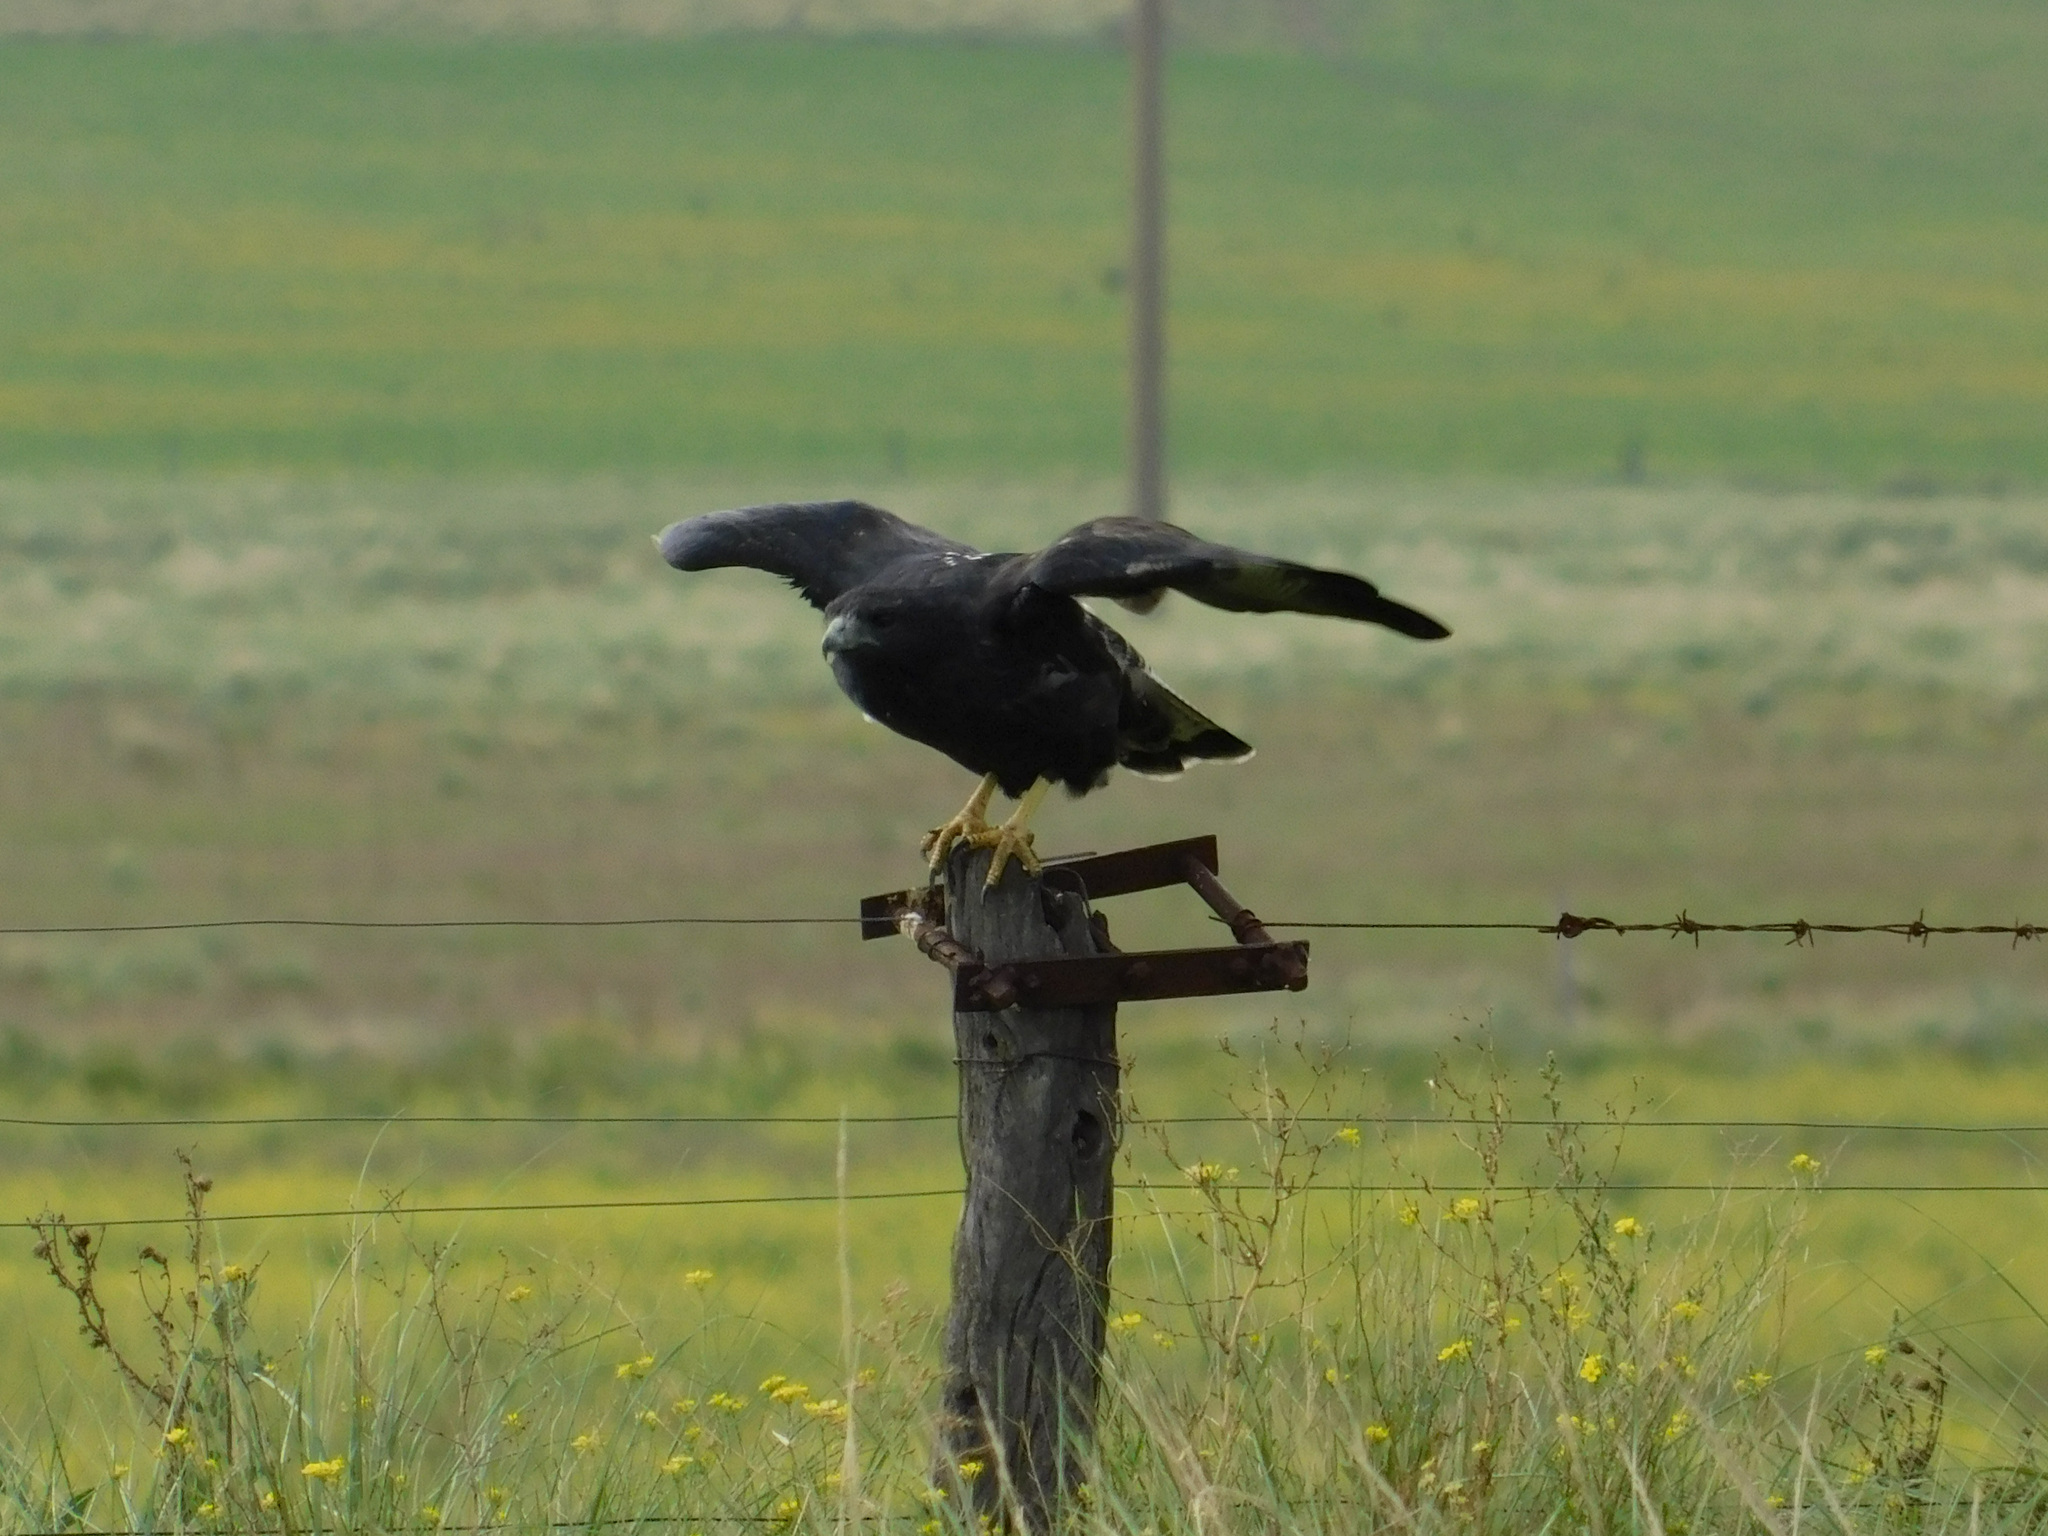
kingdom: Animalia
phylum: Chordata
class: Aves
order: Accipitriformes
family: Accipitridae
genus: Buteo
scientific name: Buteo albicaudatus
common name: White-tailed hawk
